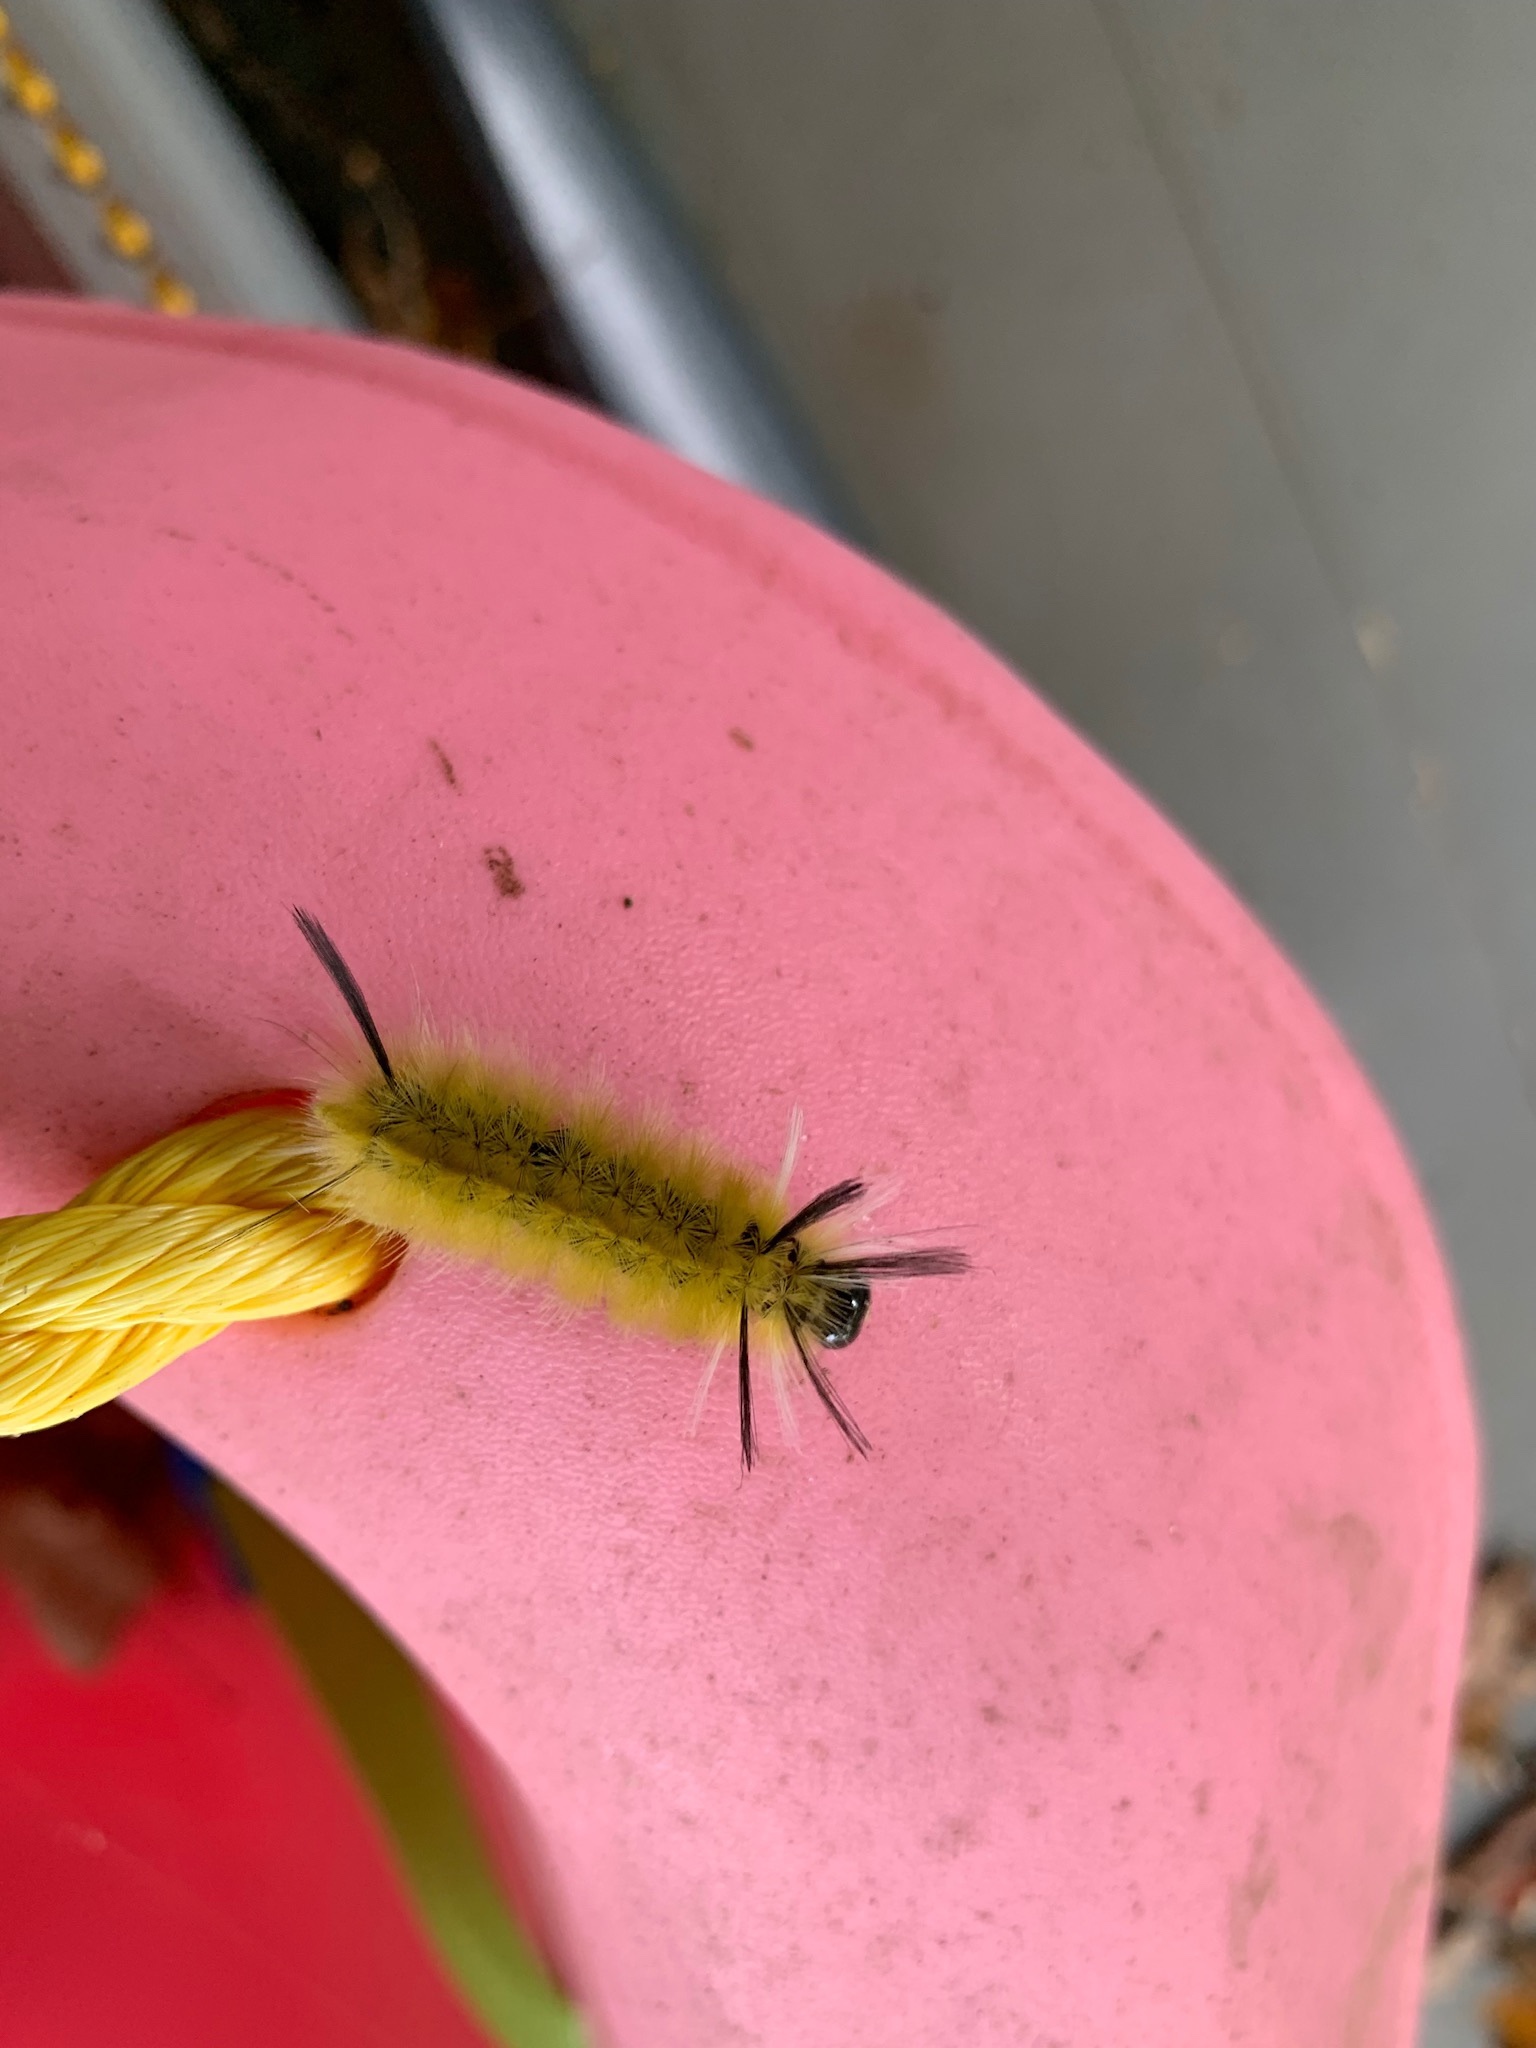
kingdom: Animalia
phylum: Arthropoda
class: Insecta
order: Lepidoptera
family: Erebidae
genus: Halysidota
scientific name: Halysidota tessellaris
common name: Banded tussock moth
